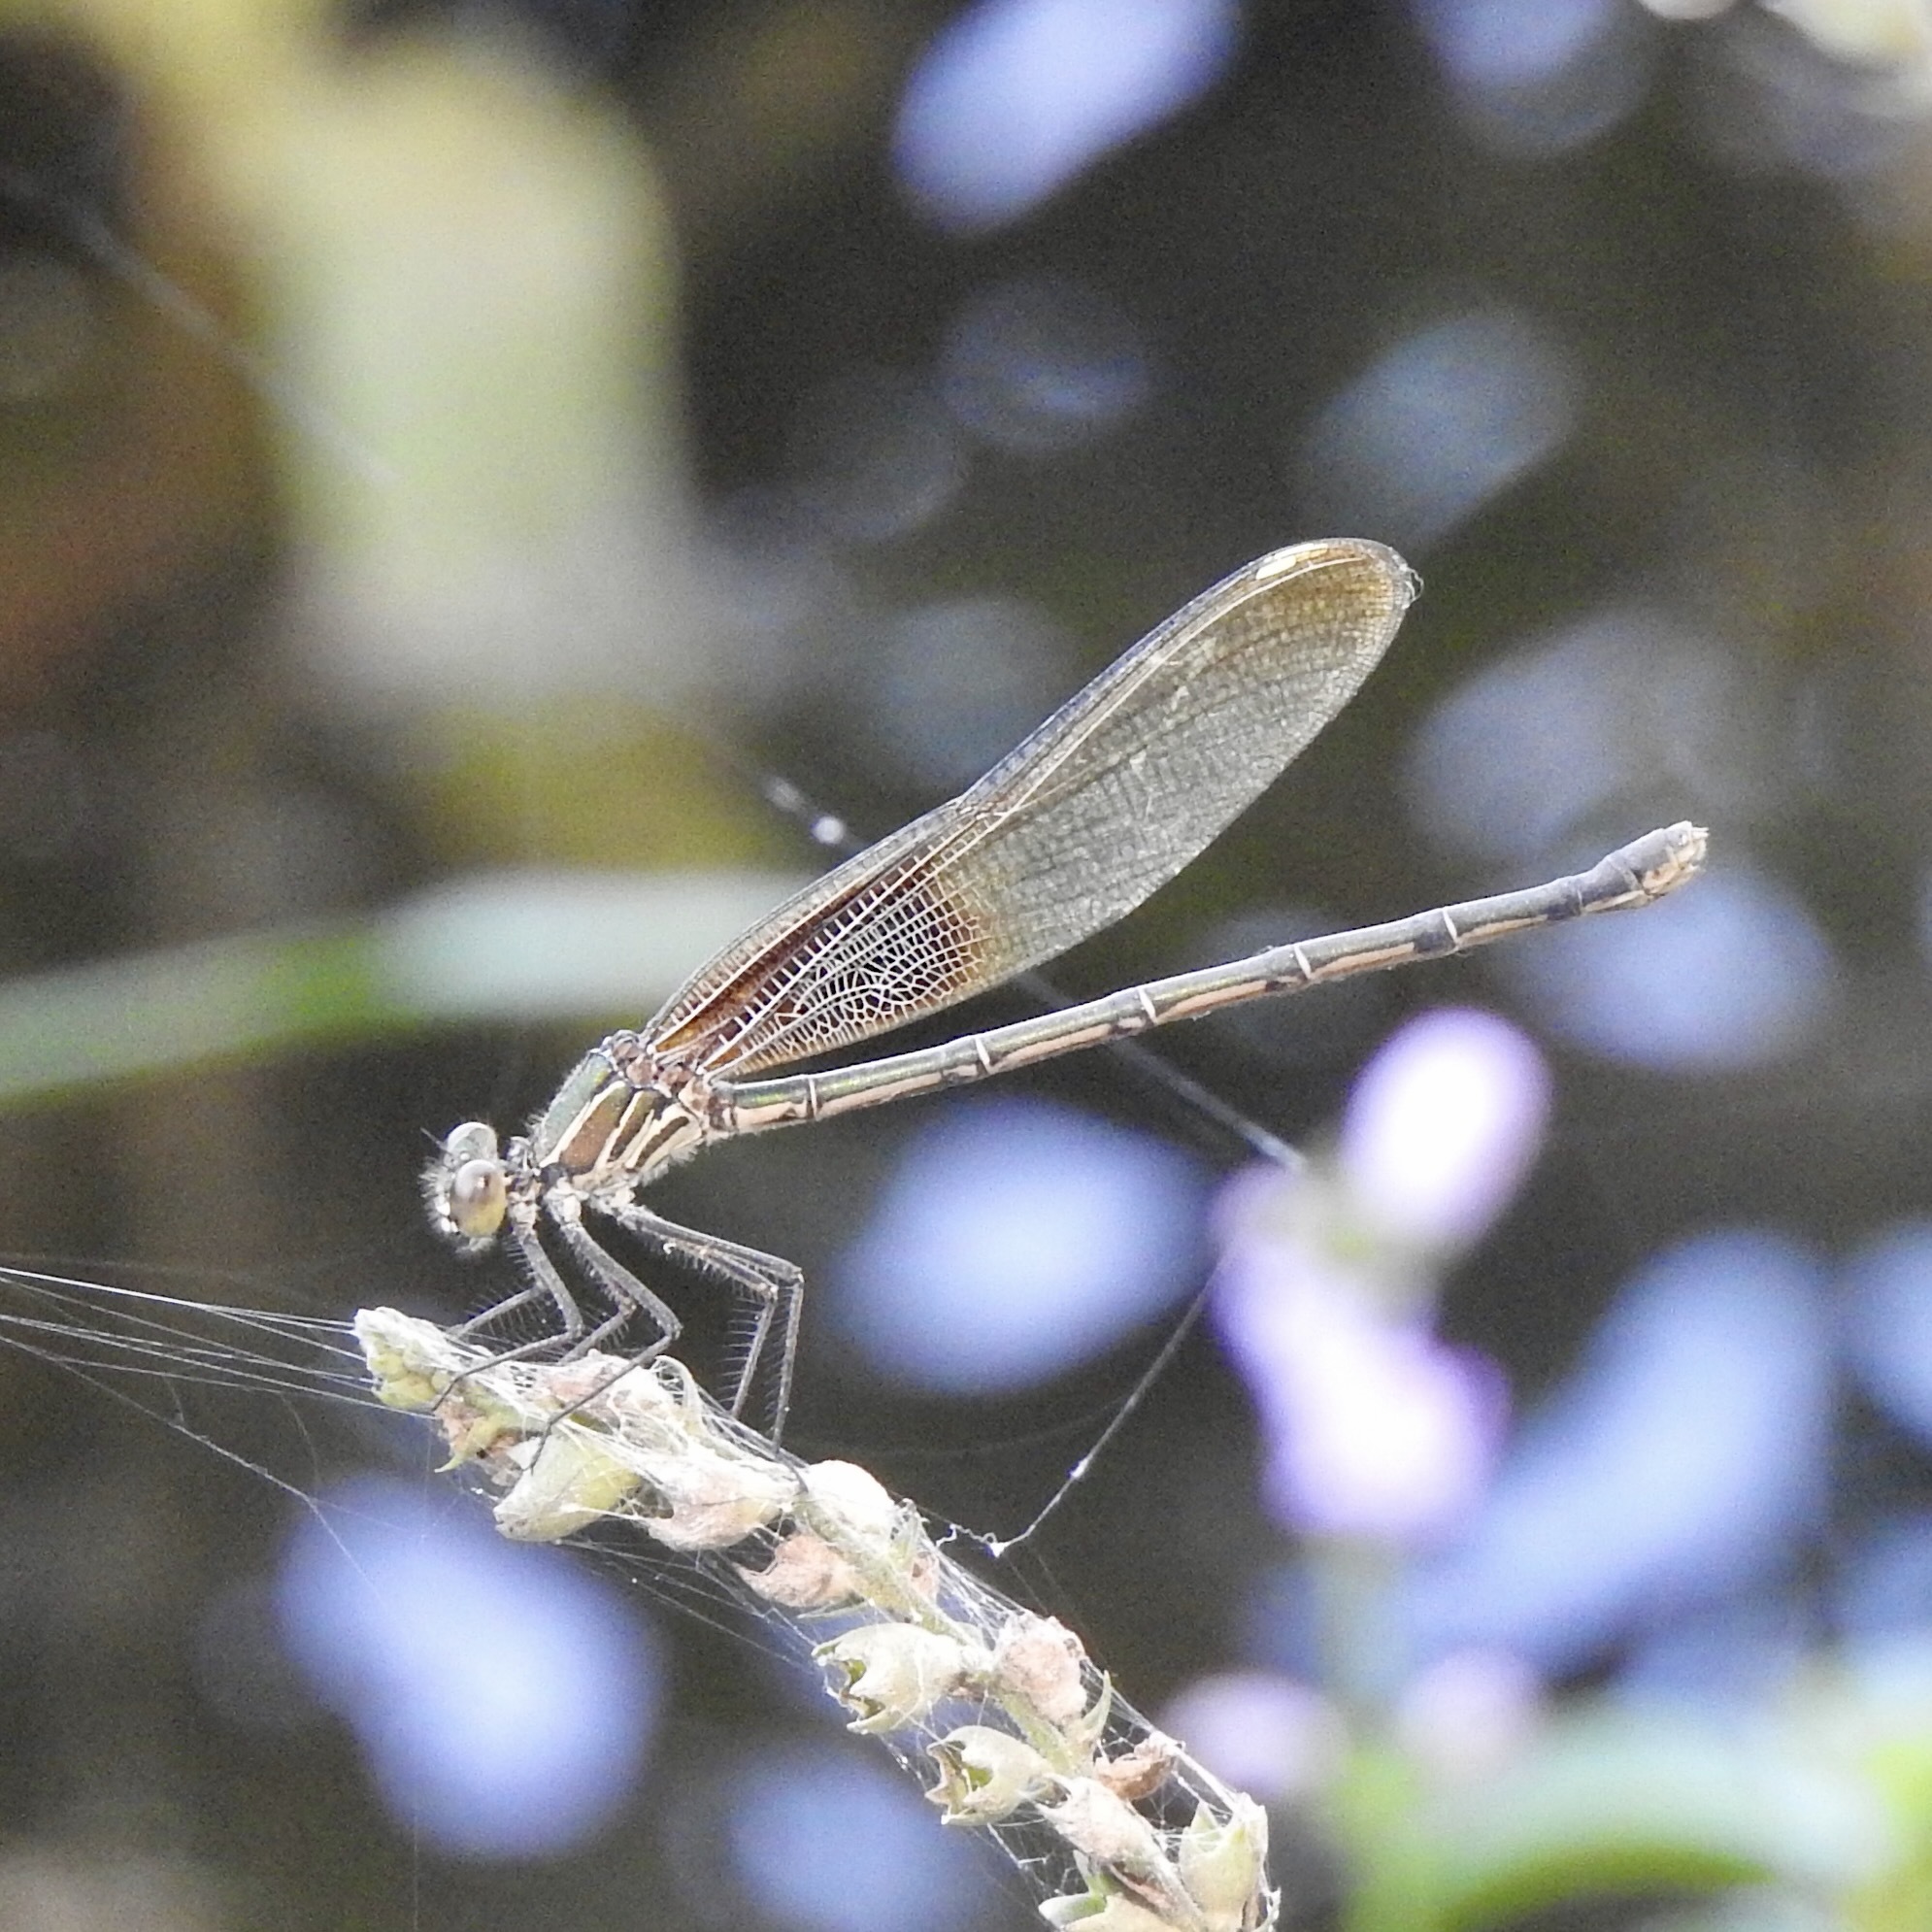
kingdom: Animalia
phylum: Arthropoda
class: Insecta
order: Odonata
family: Calopterygidae
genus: Hetaerina
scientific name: Hetaerina americana
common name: American rubyspot
